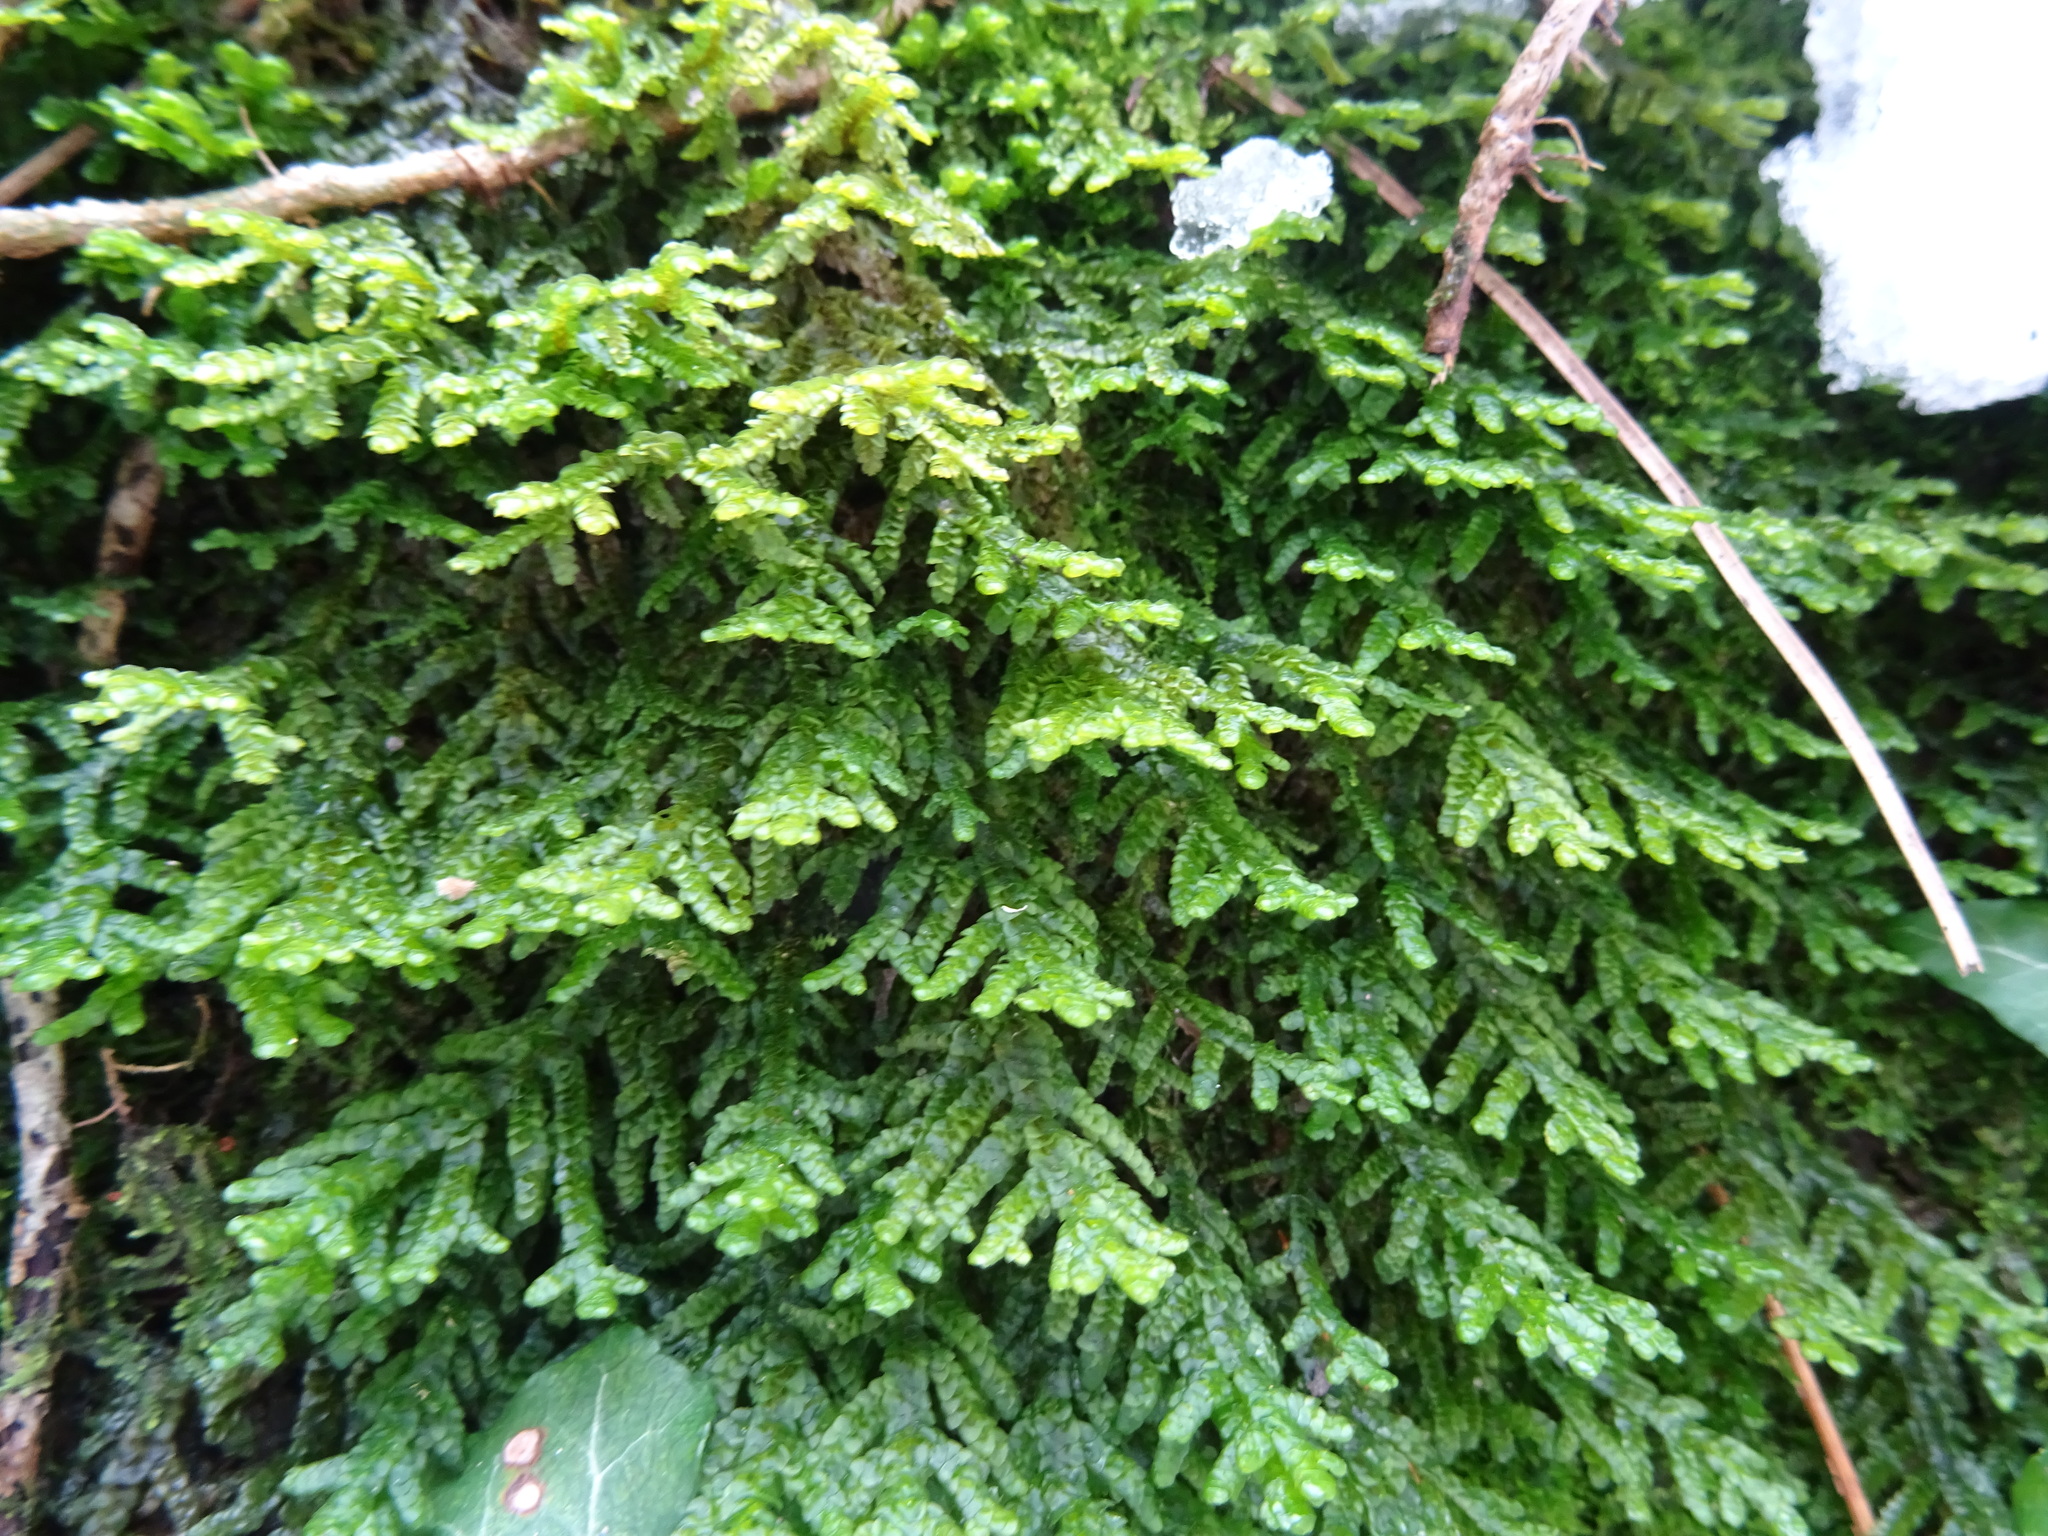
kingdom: Plantae
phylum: Marchantiophyta
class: Jungermanniopsida
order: Porellales
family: Porellaceae
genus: Porella
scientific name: Porella platyphylla
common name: Wall scalewort
